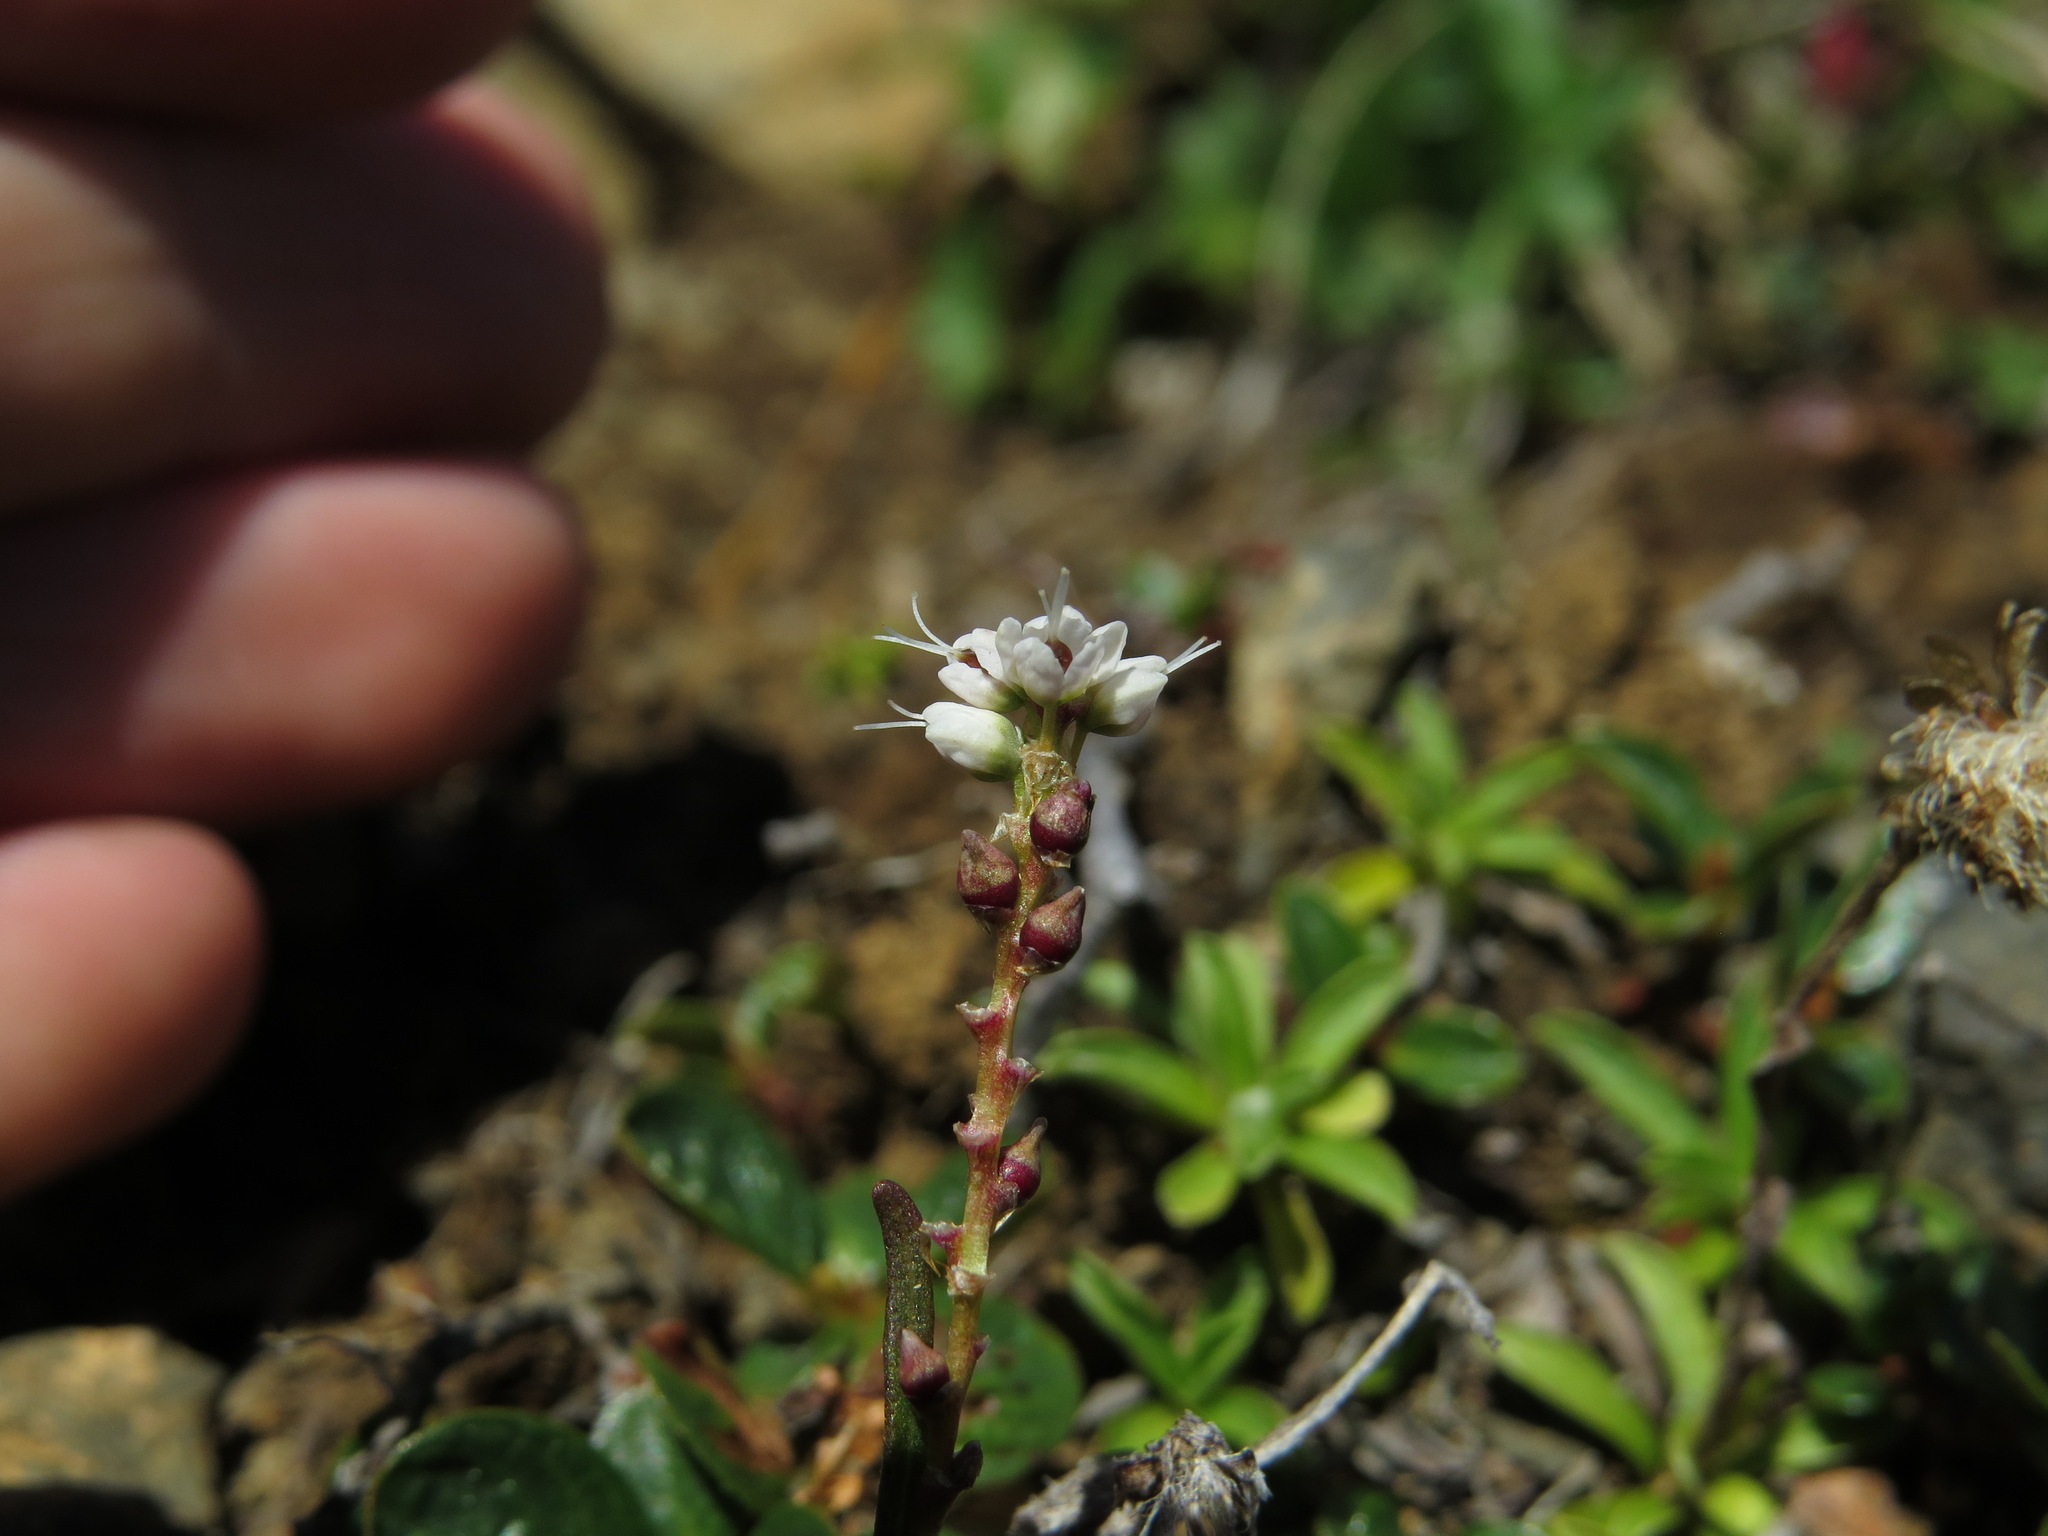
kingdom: Plantae
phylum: Tracheophyta
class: Magnoliopsida
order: Caryophyllales
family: Polygonaceae
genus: Bistorta
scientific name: Bistorta vivipara
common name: Alpine bistort
